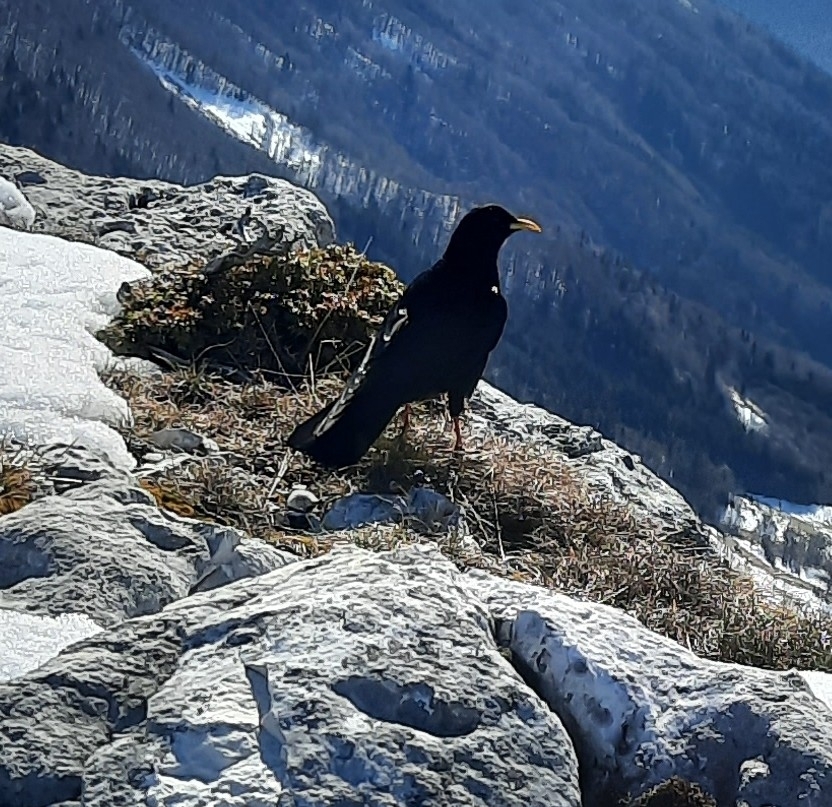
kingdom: Animalia
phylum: Chordata
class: Aves
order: Passeriformes
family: Corvidae
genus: Pyrrhocorax
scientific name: Pyrrhocorax graculus
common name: Alpine chough
